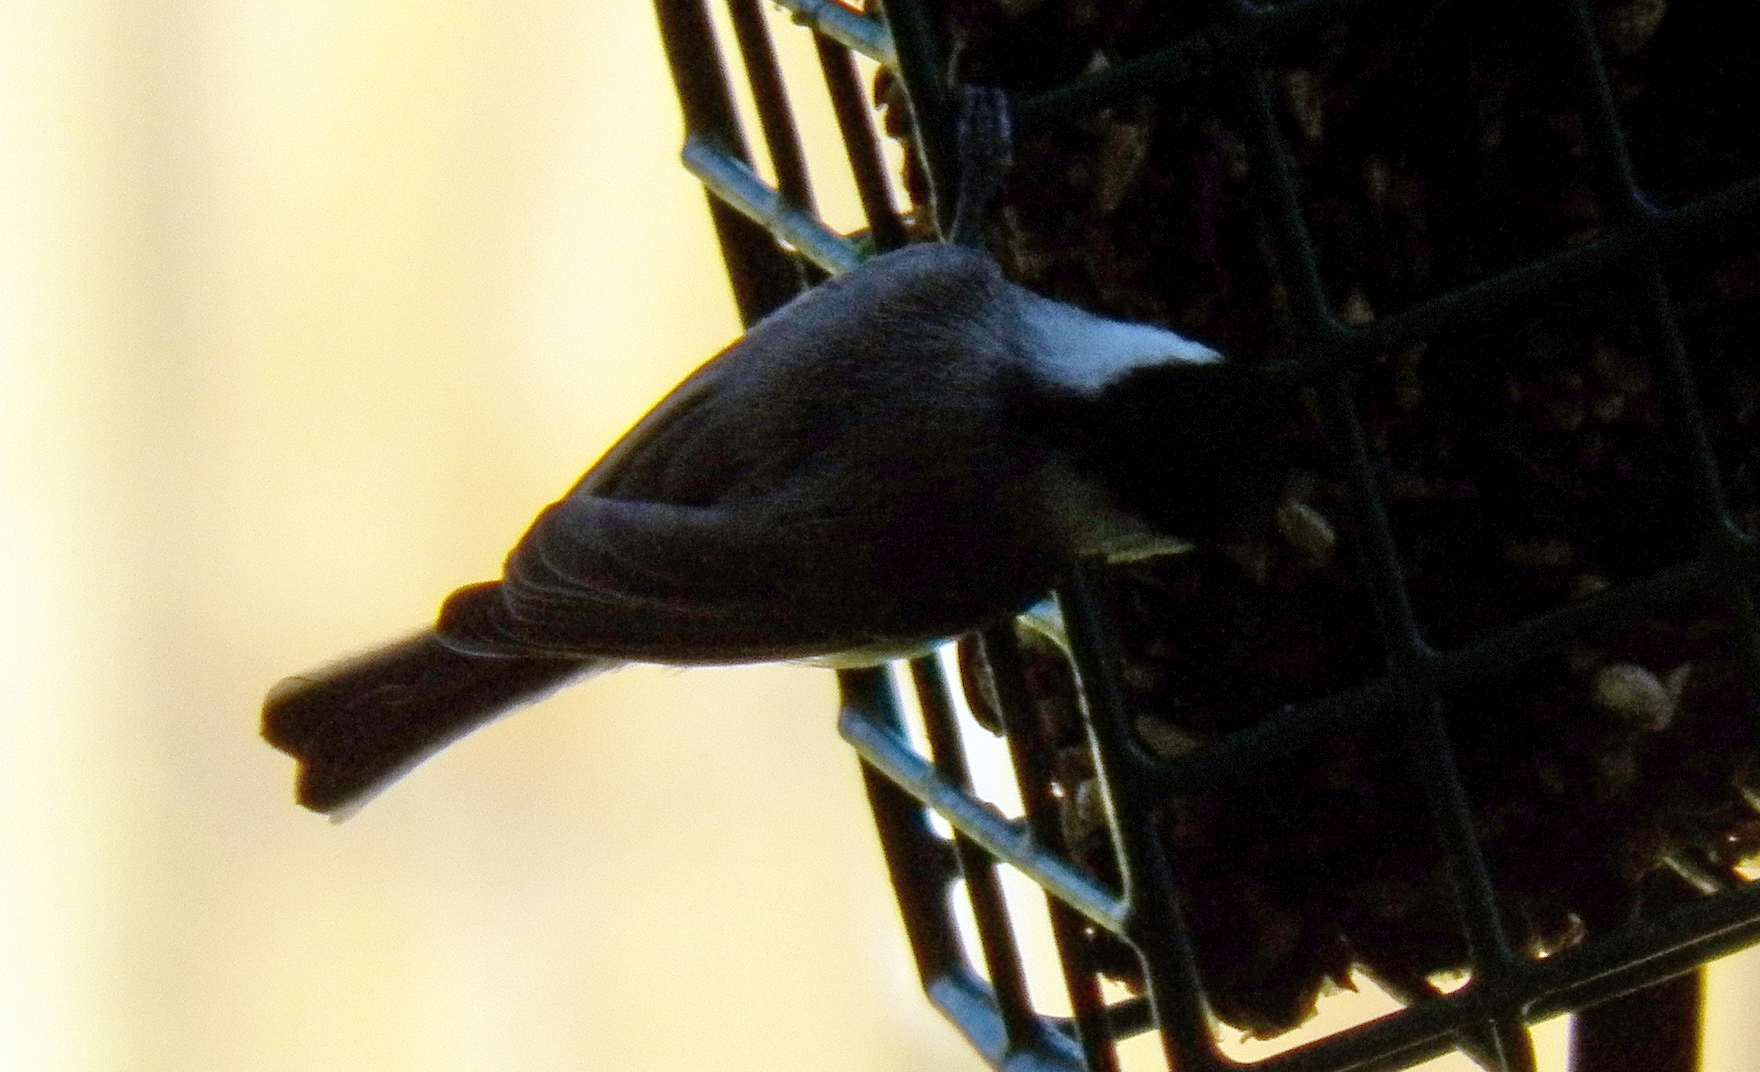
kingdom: Animalia
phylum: Chordata
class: Aves
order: Passeriformes
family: Paridae
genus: Poecile
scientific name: Poecile carolinensis
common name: Carolina chickadee
